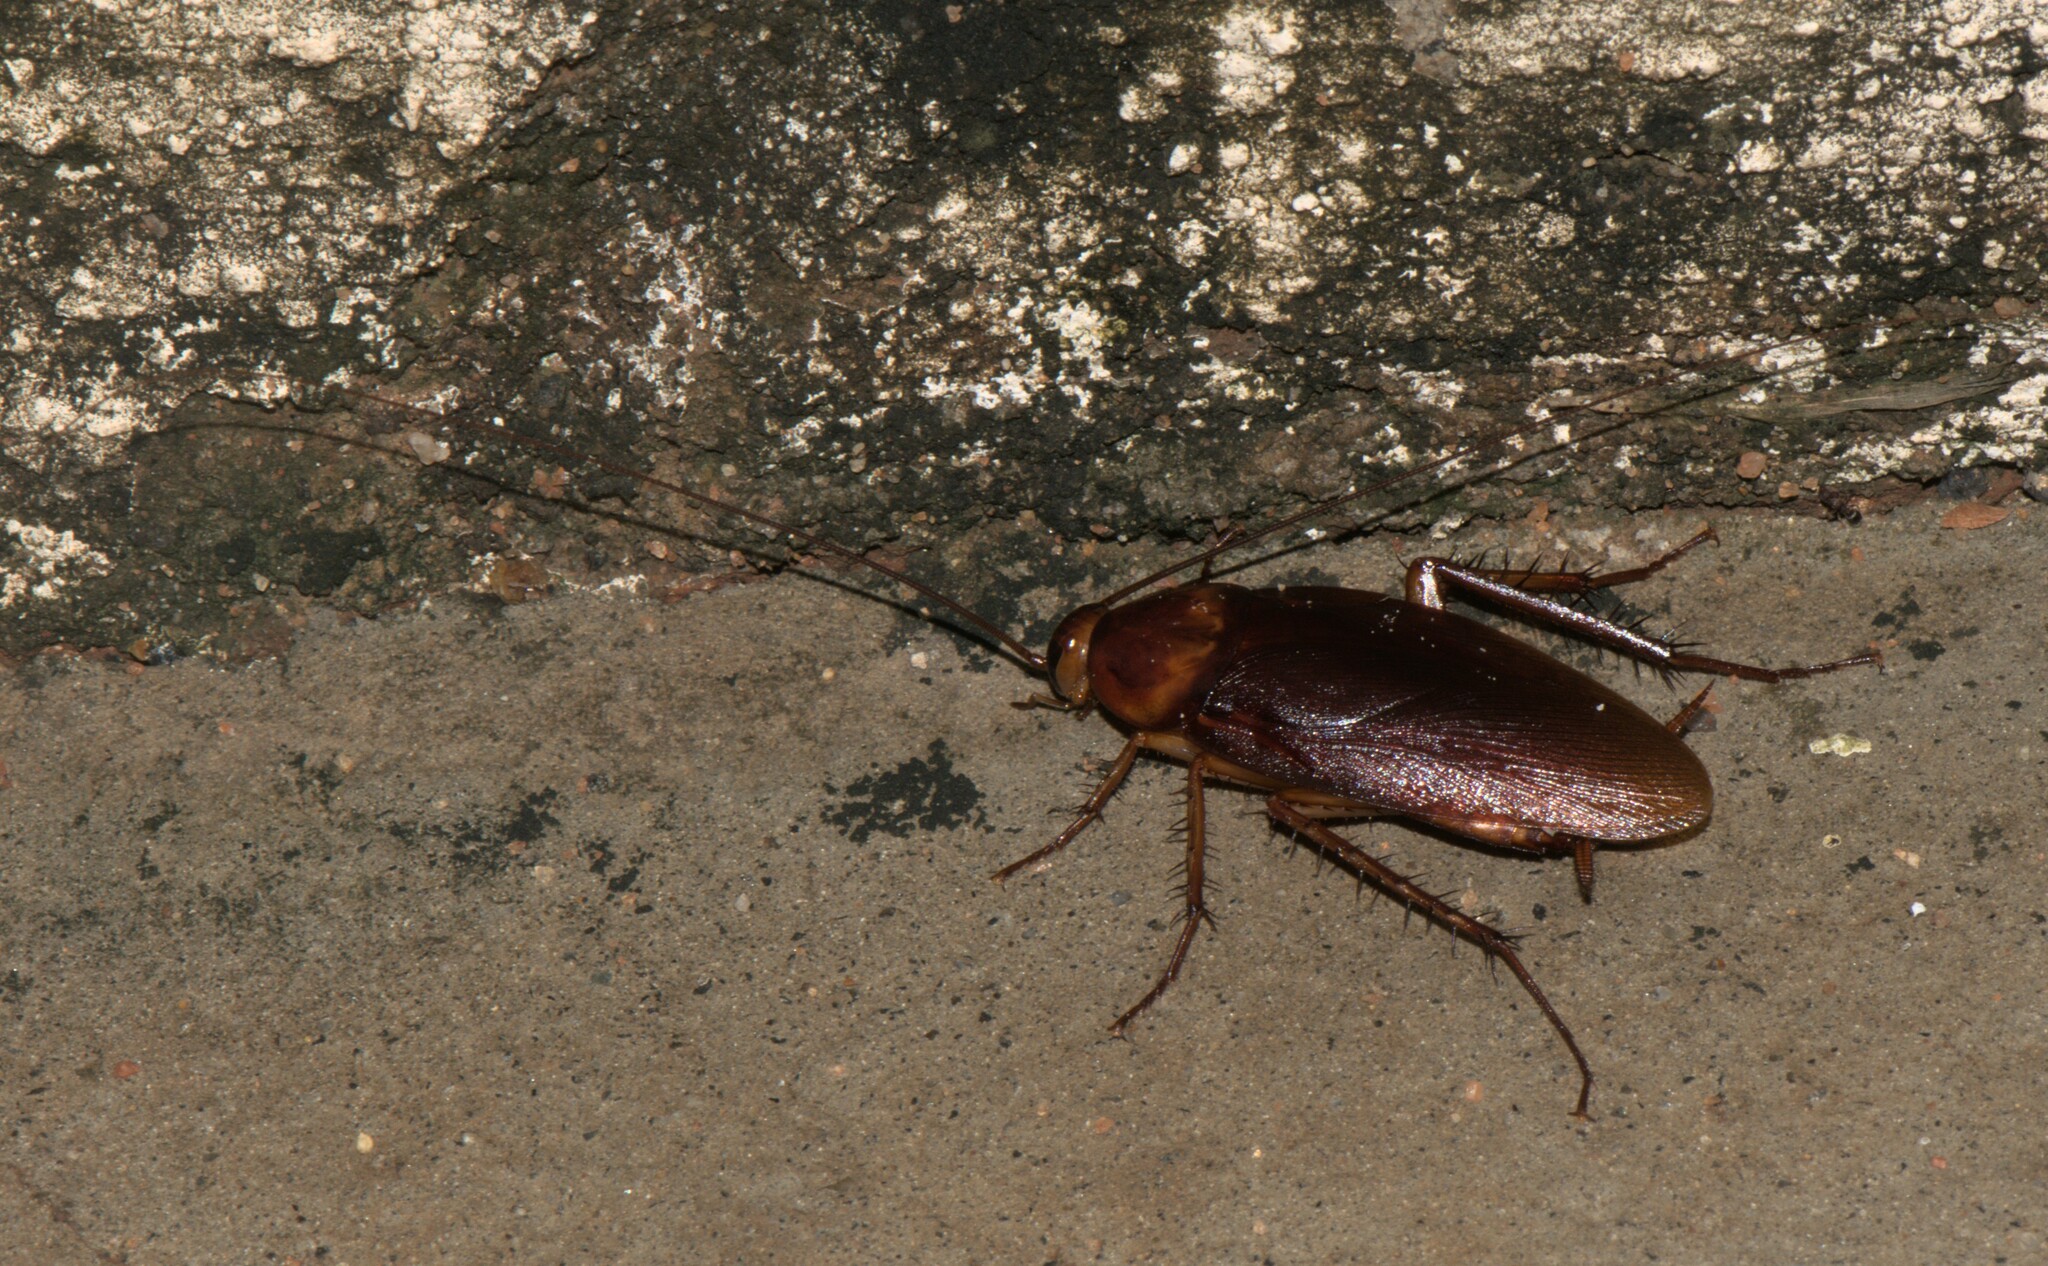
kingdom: Animalia
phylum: Arthropoda
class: Insecta
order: Blattodea
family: Blattidae
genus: Periplaneta
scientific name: Periplaneta americana
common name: American cockroach
